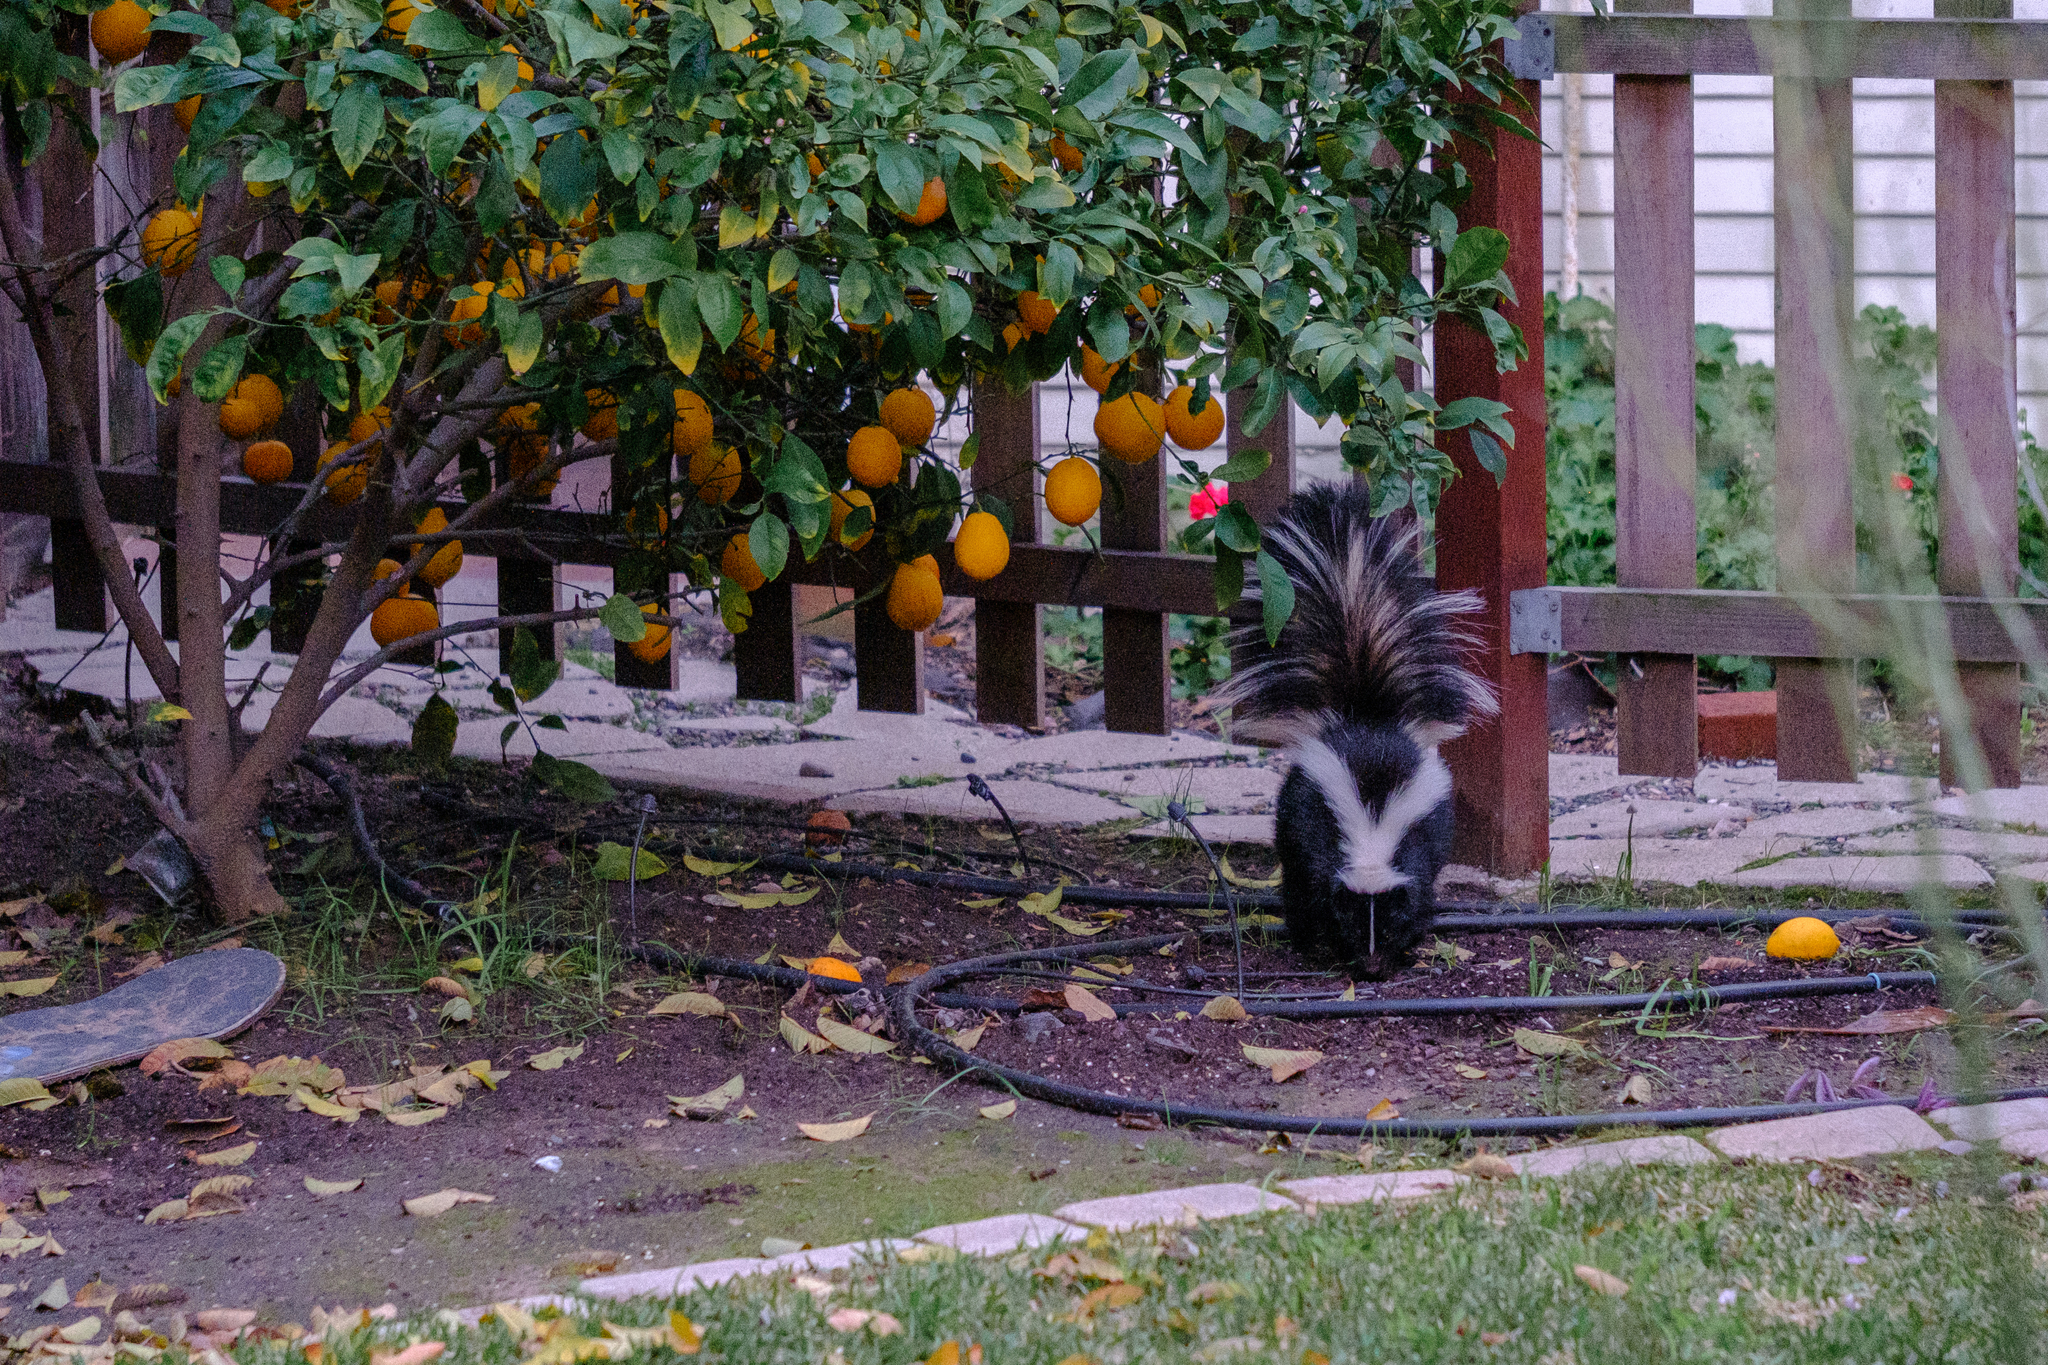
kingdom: Animalia
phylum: Chordata
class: Mammalia
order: Carnivora
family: Mephitidae
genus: Mephitis
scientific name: Mephitis mephitis
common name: Striped skunk
